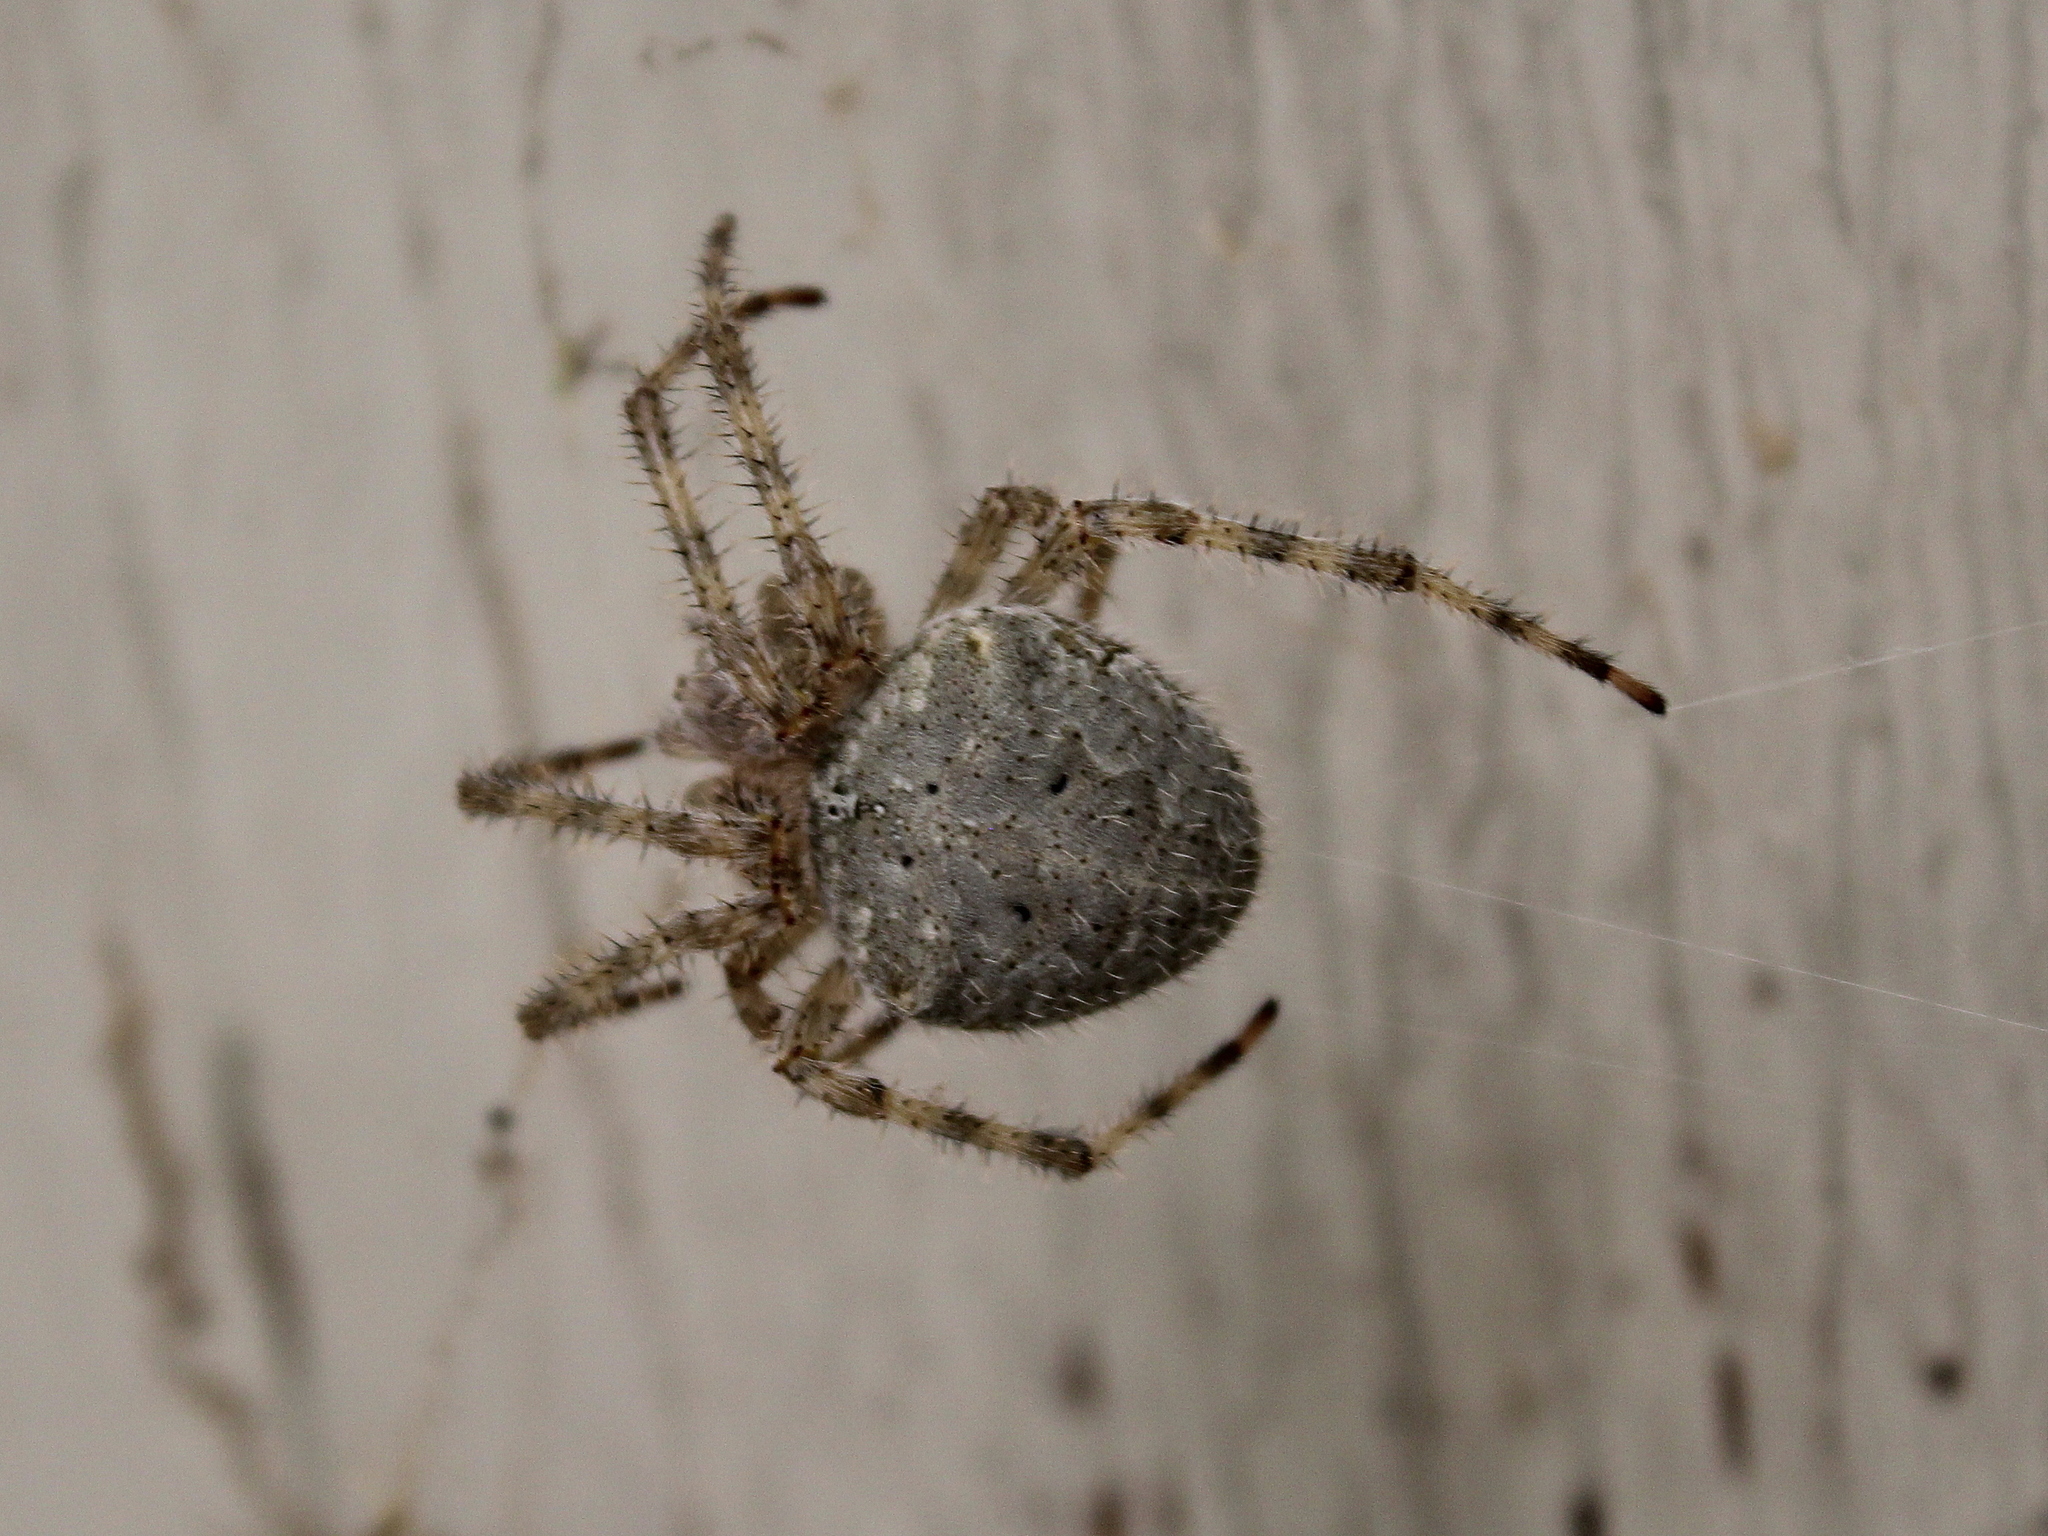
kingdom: Animalia
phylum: Arthropoda
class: Arachnida
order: Araneae
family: Araneidae
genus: Araneus
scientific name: Araneus cavaticus
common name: Barn orbweaver
